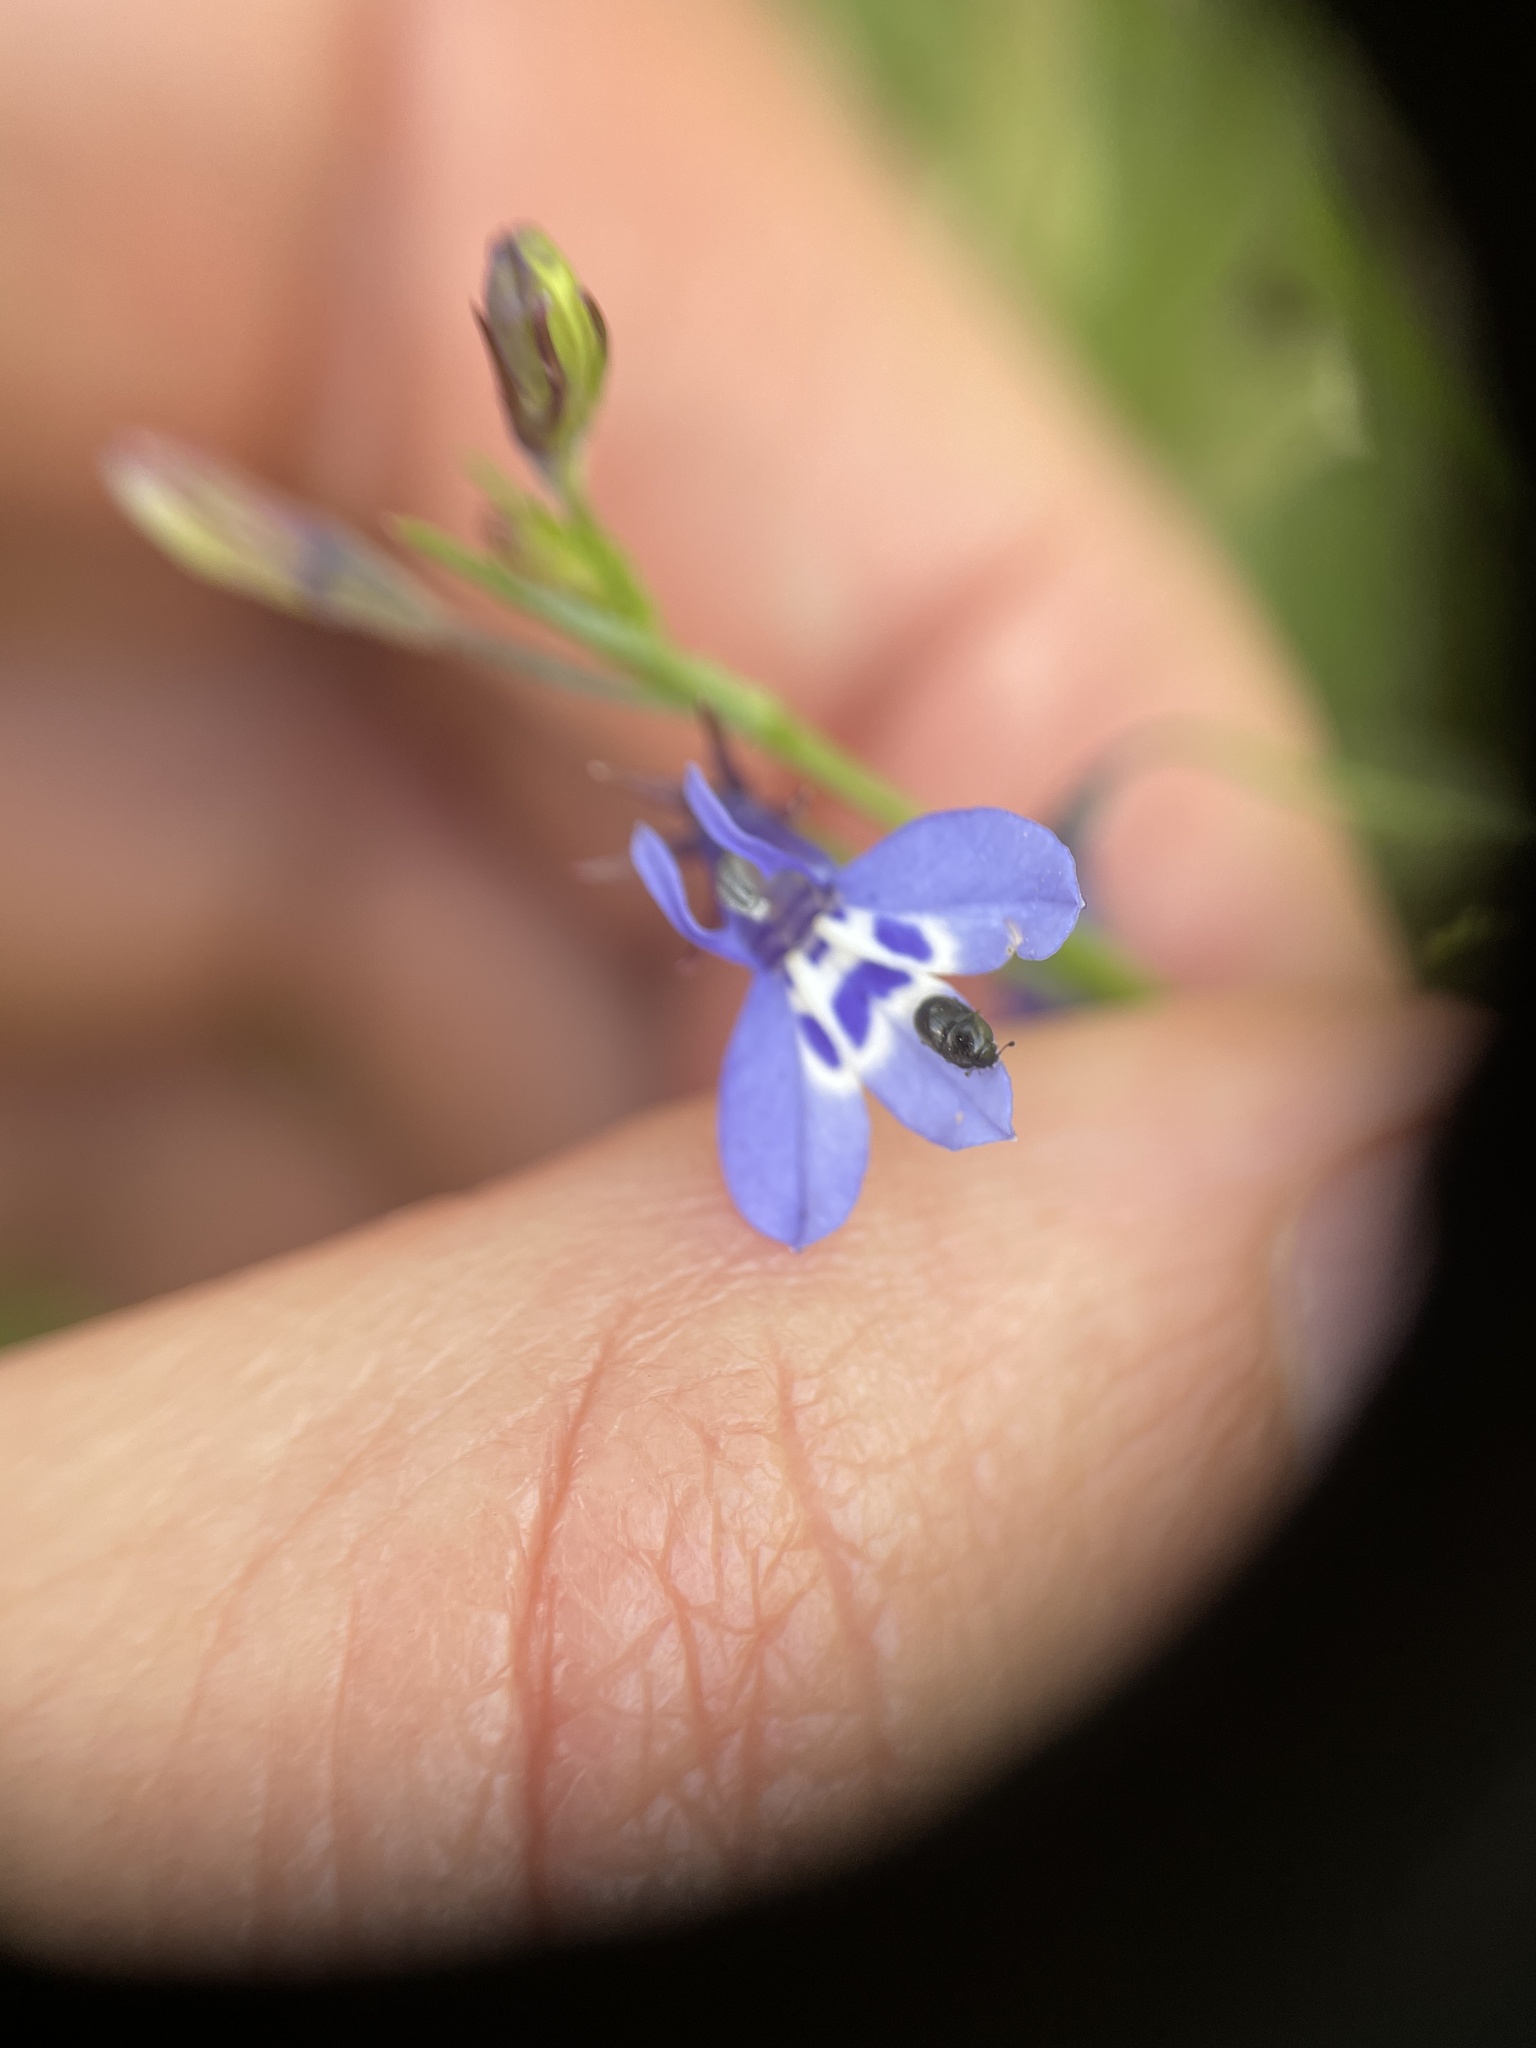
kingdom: Plantae
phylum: Tracheophyta
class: Magnoliopsida
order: Asterales
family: Campanulaceae
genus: Lobelia
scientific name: Lobelia flaccida
